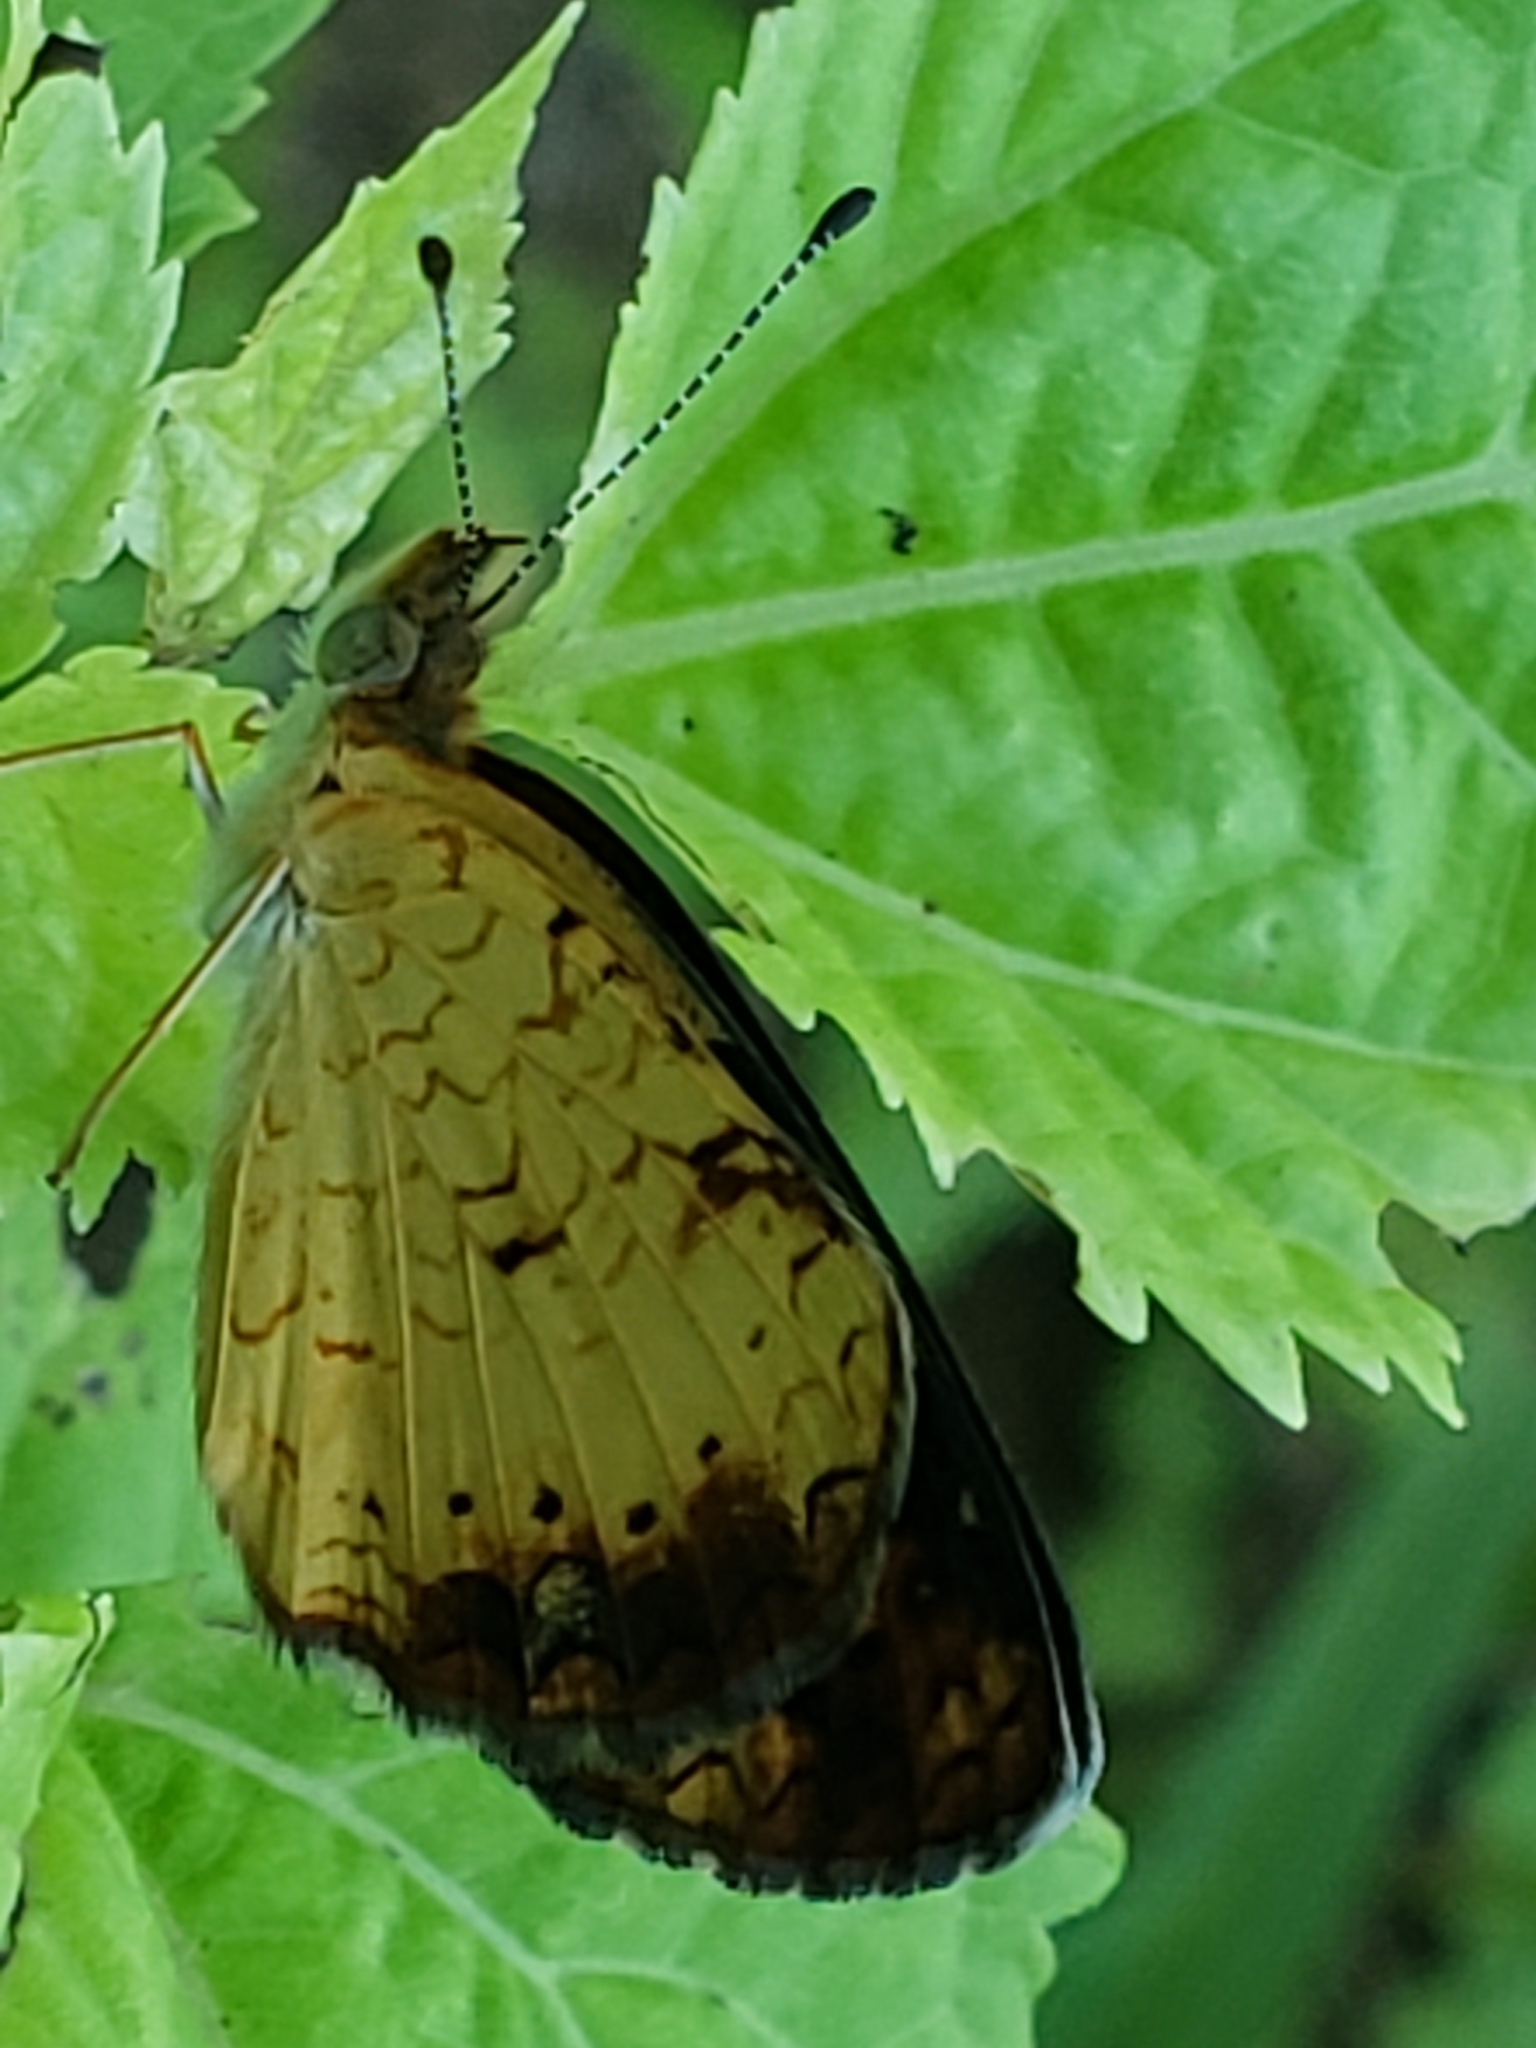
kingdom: Animalia
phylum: Arthropoda
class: Insecta
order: Lepidoptera
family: Nymphalidae
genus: Phyciodes
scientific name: Phyciodes tharos
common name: Pearl crescent
